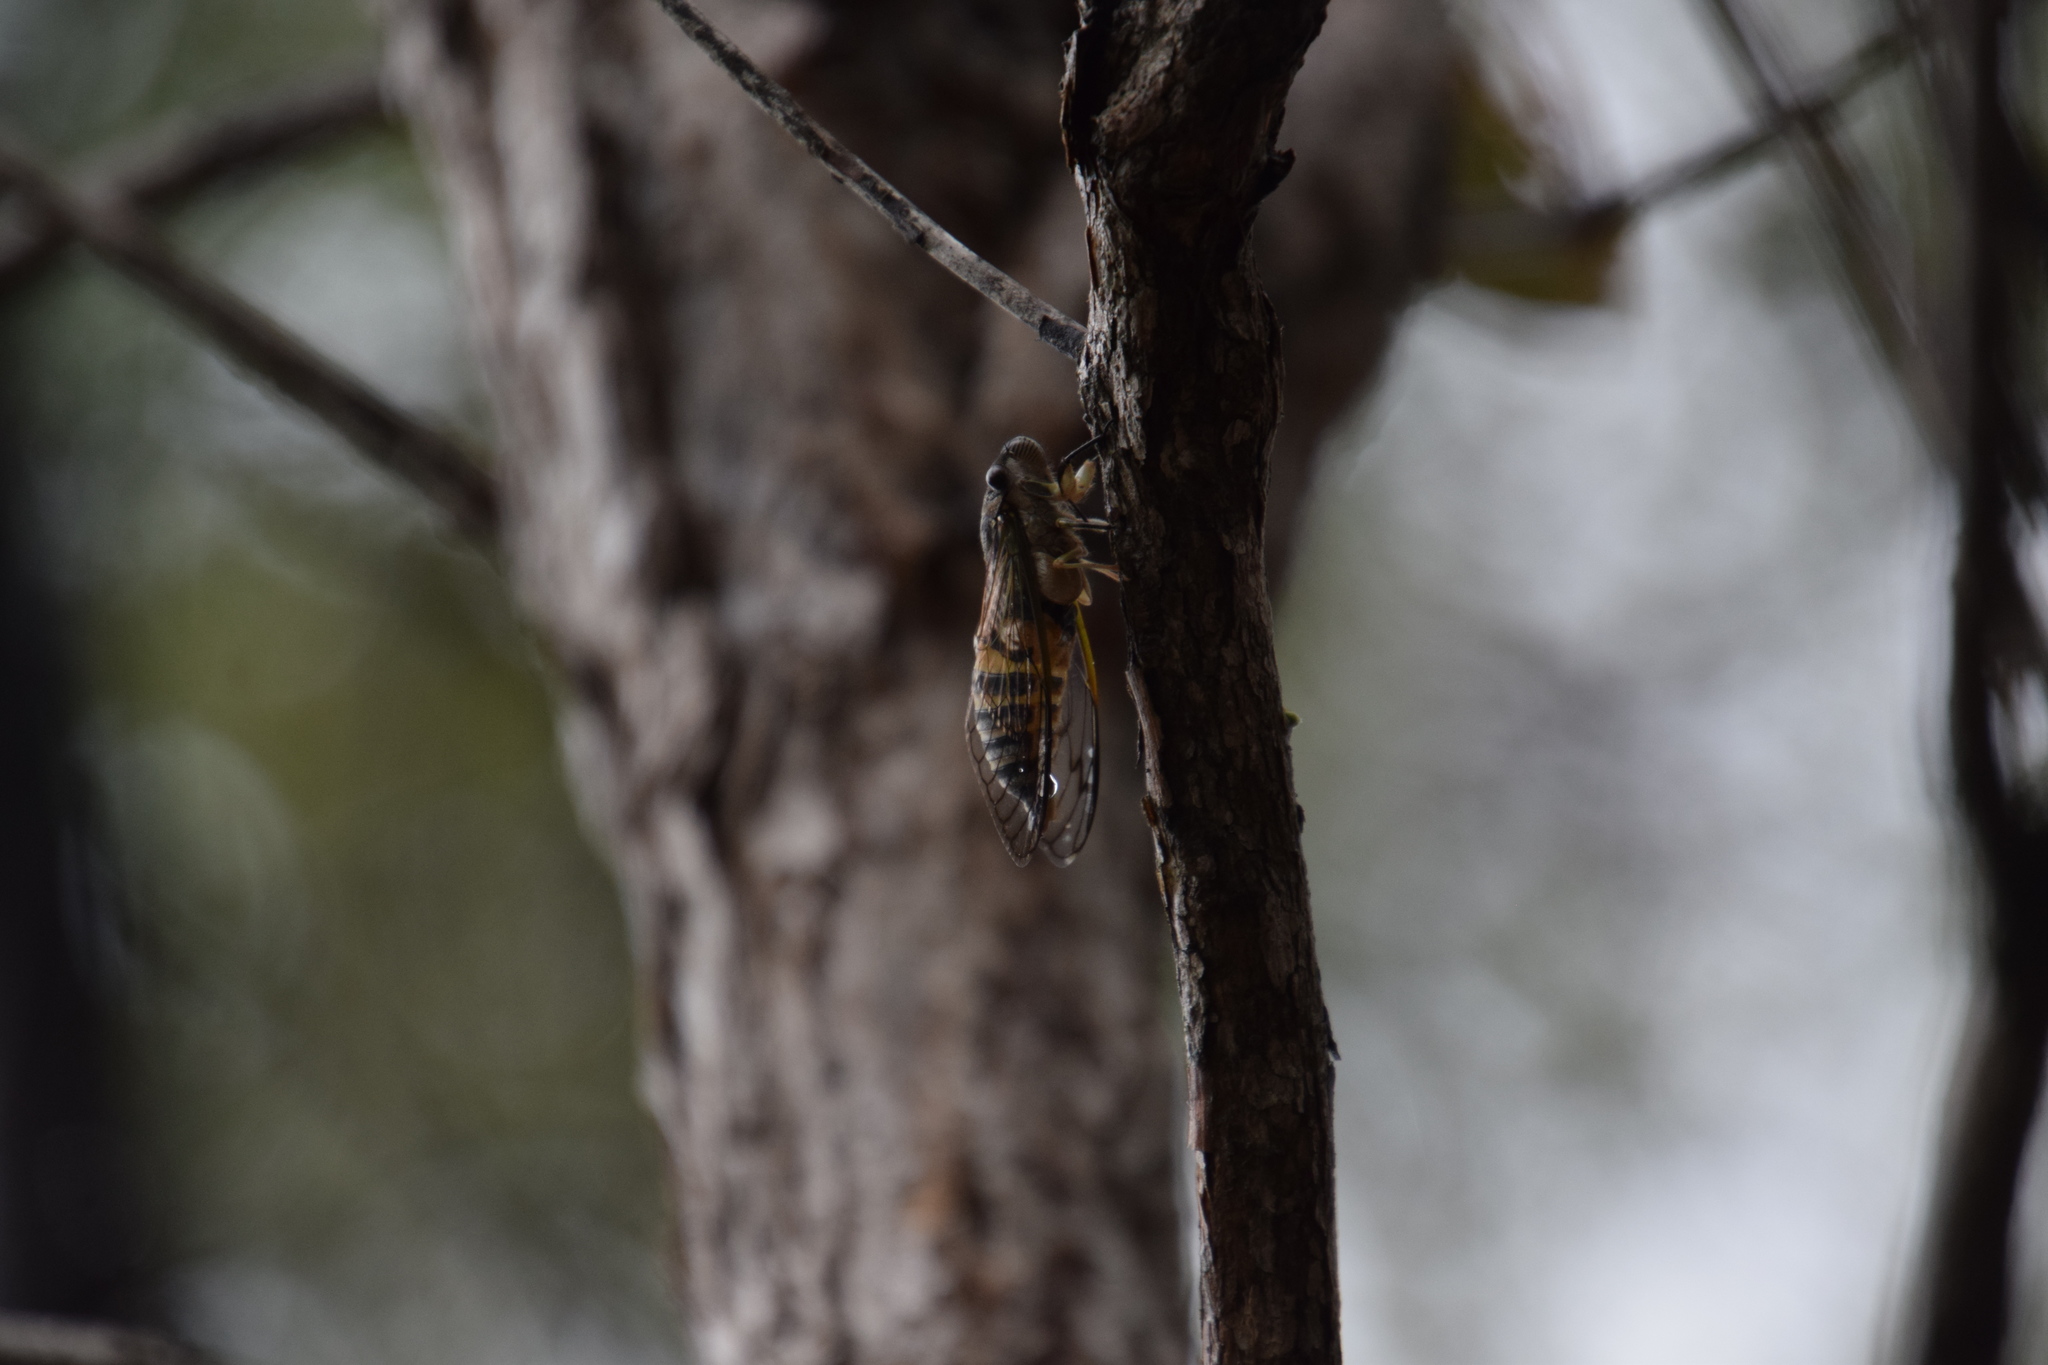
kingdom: Animalia
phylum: Arthropoda
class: Insecta
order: Hemiptera
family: Cicadidae
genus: Psaltoda
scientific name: Psaltoda mossi
